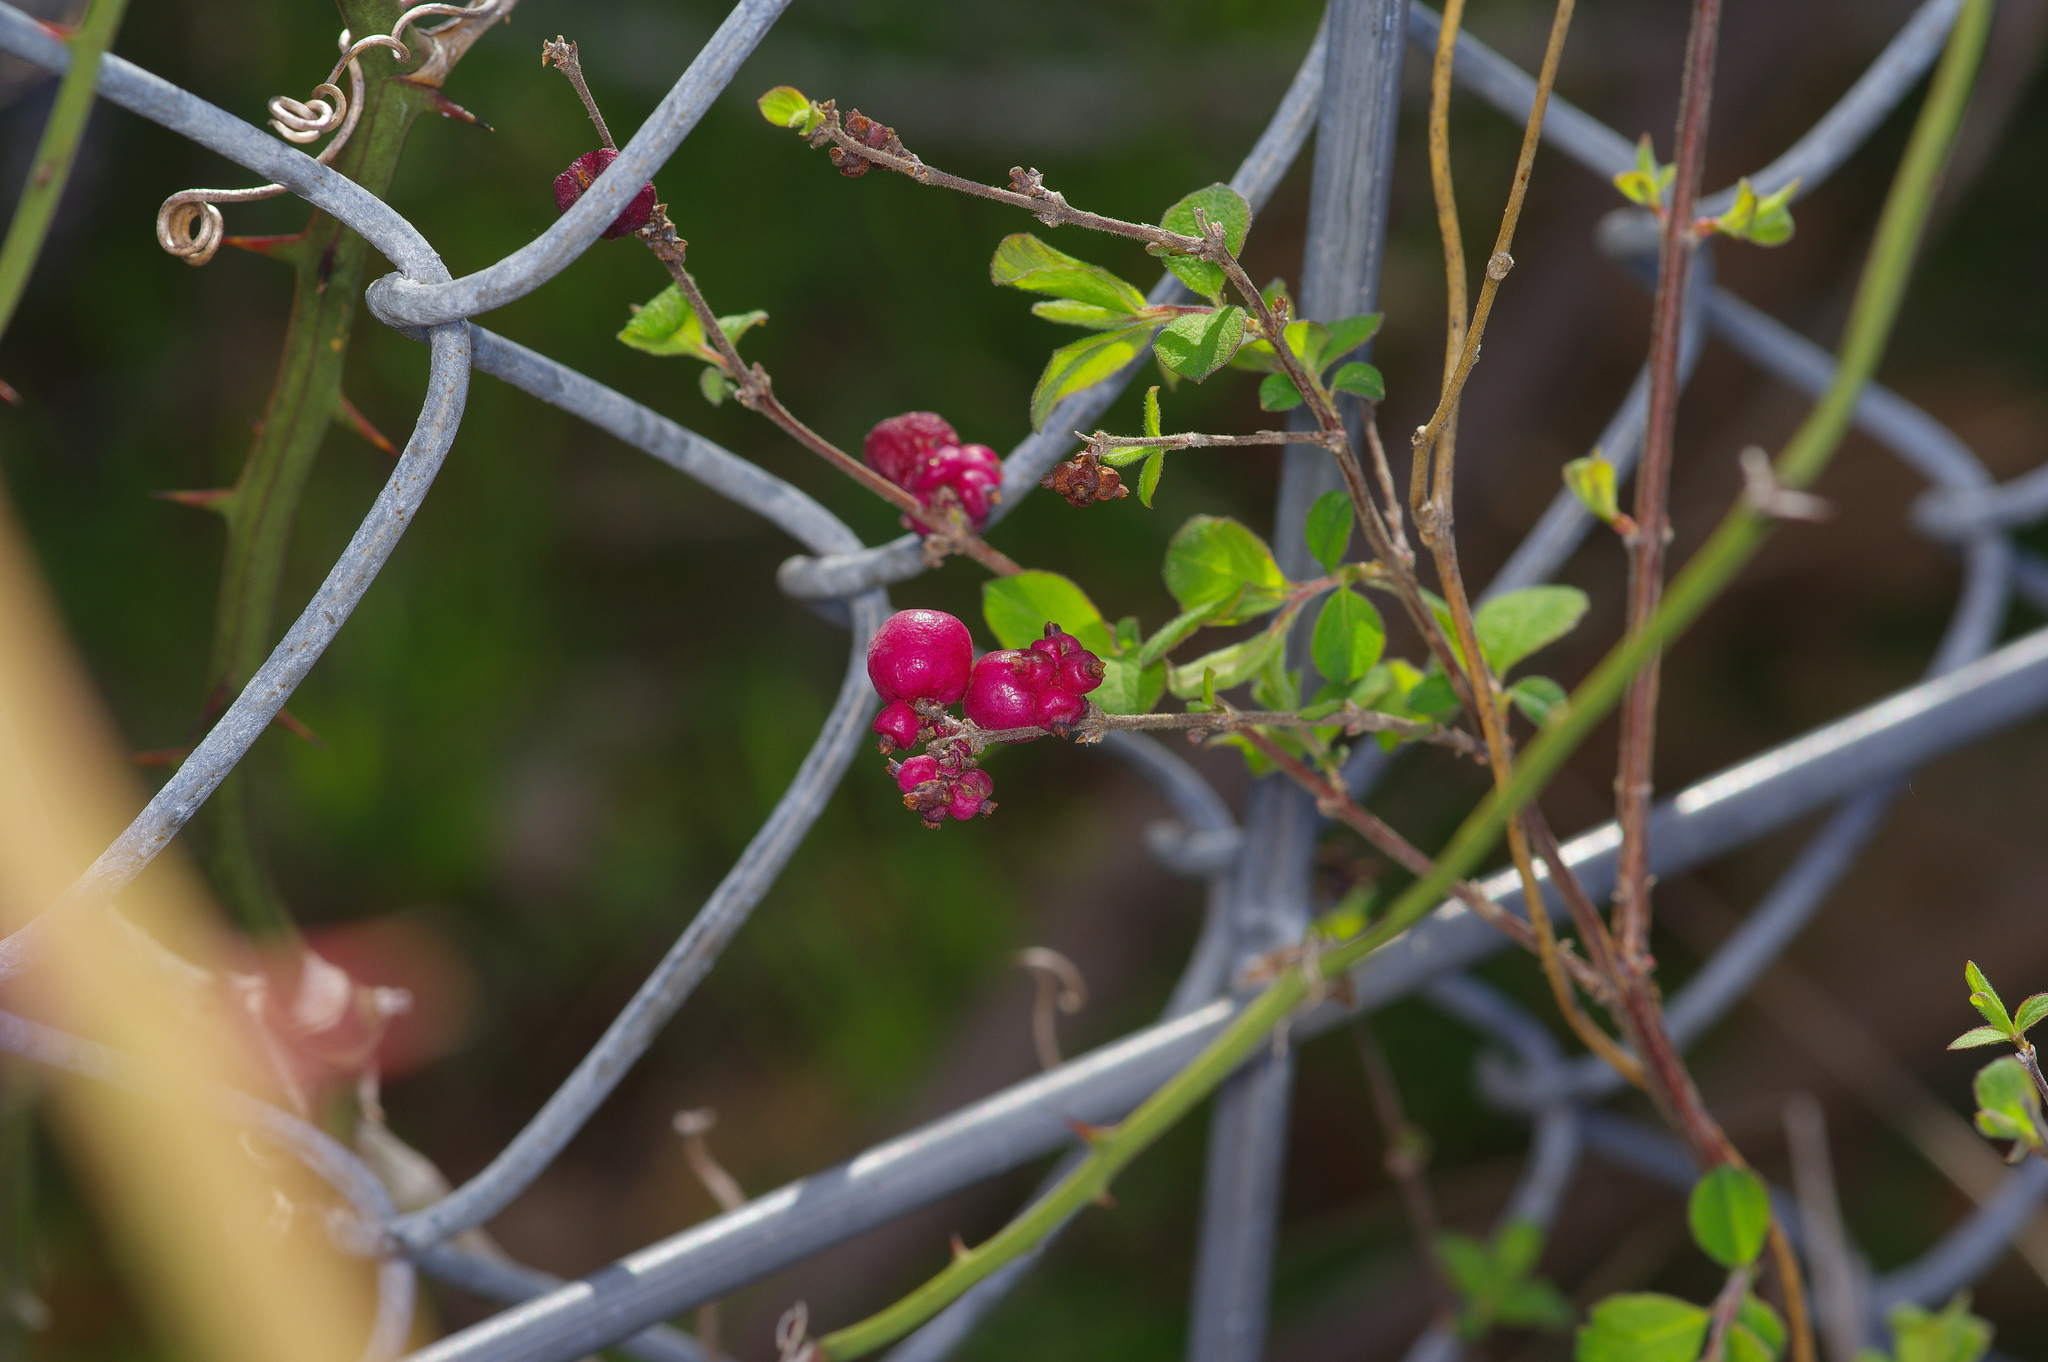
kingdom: Plantae
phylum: Tracheophyta
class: Magnoliopsida
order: Dipsacales
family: Caprifoliaceae
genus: Symphoricarpos
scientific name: Symphoricarpos orbiculatus
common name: Coralberry
